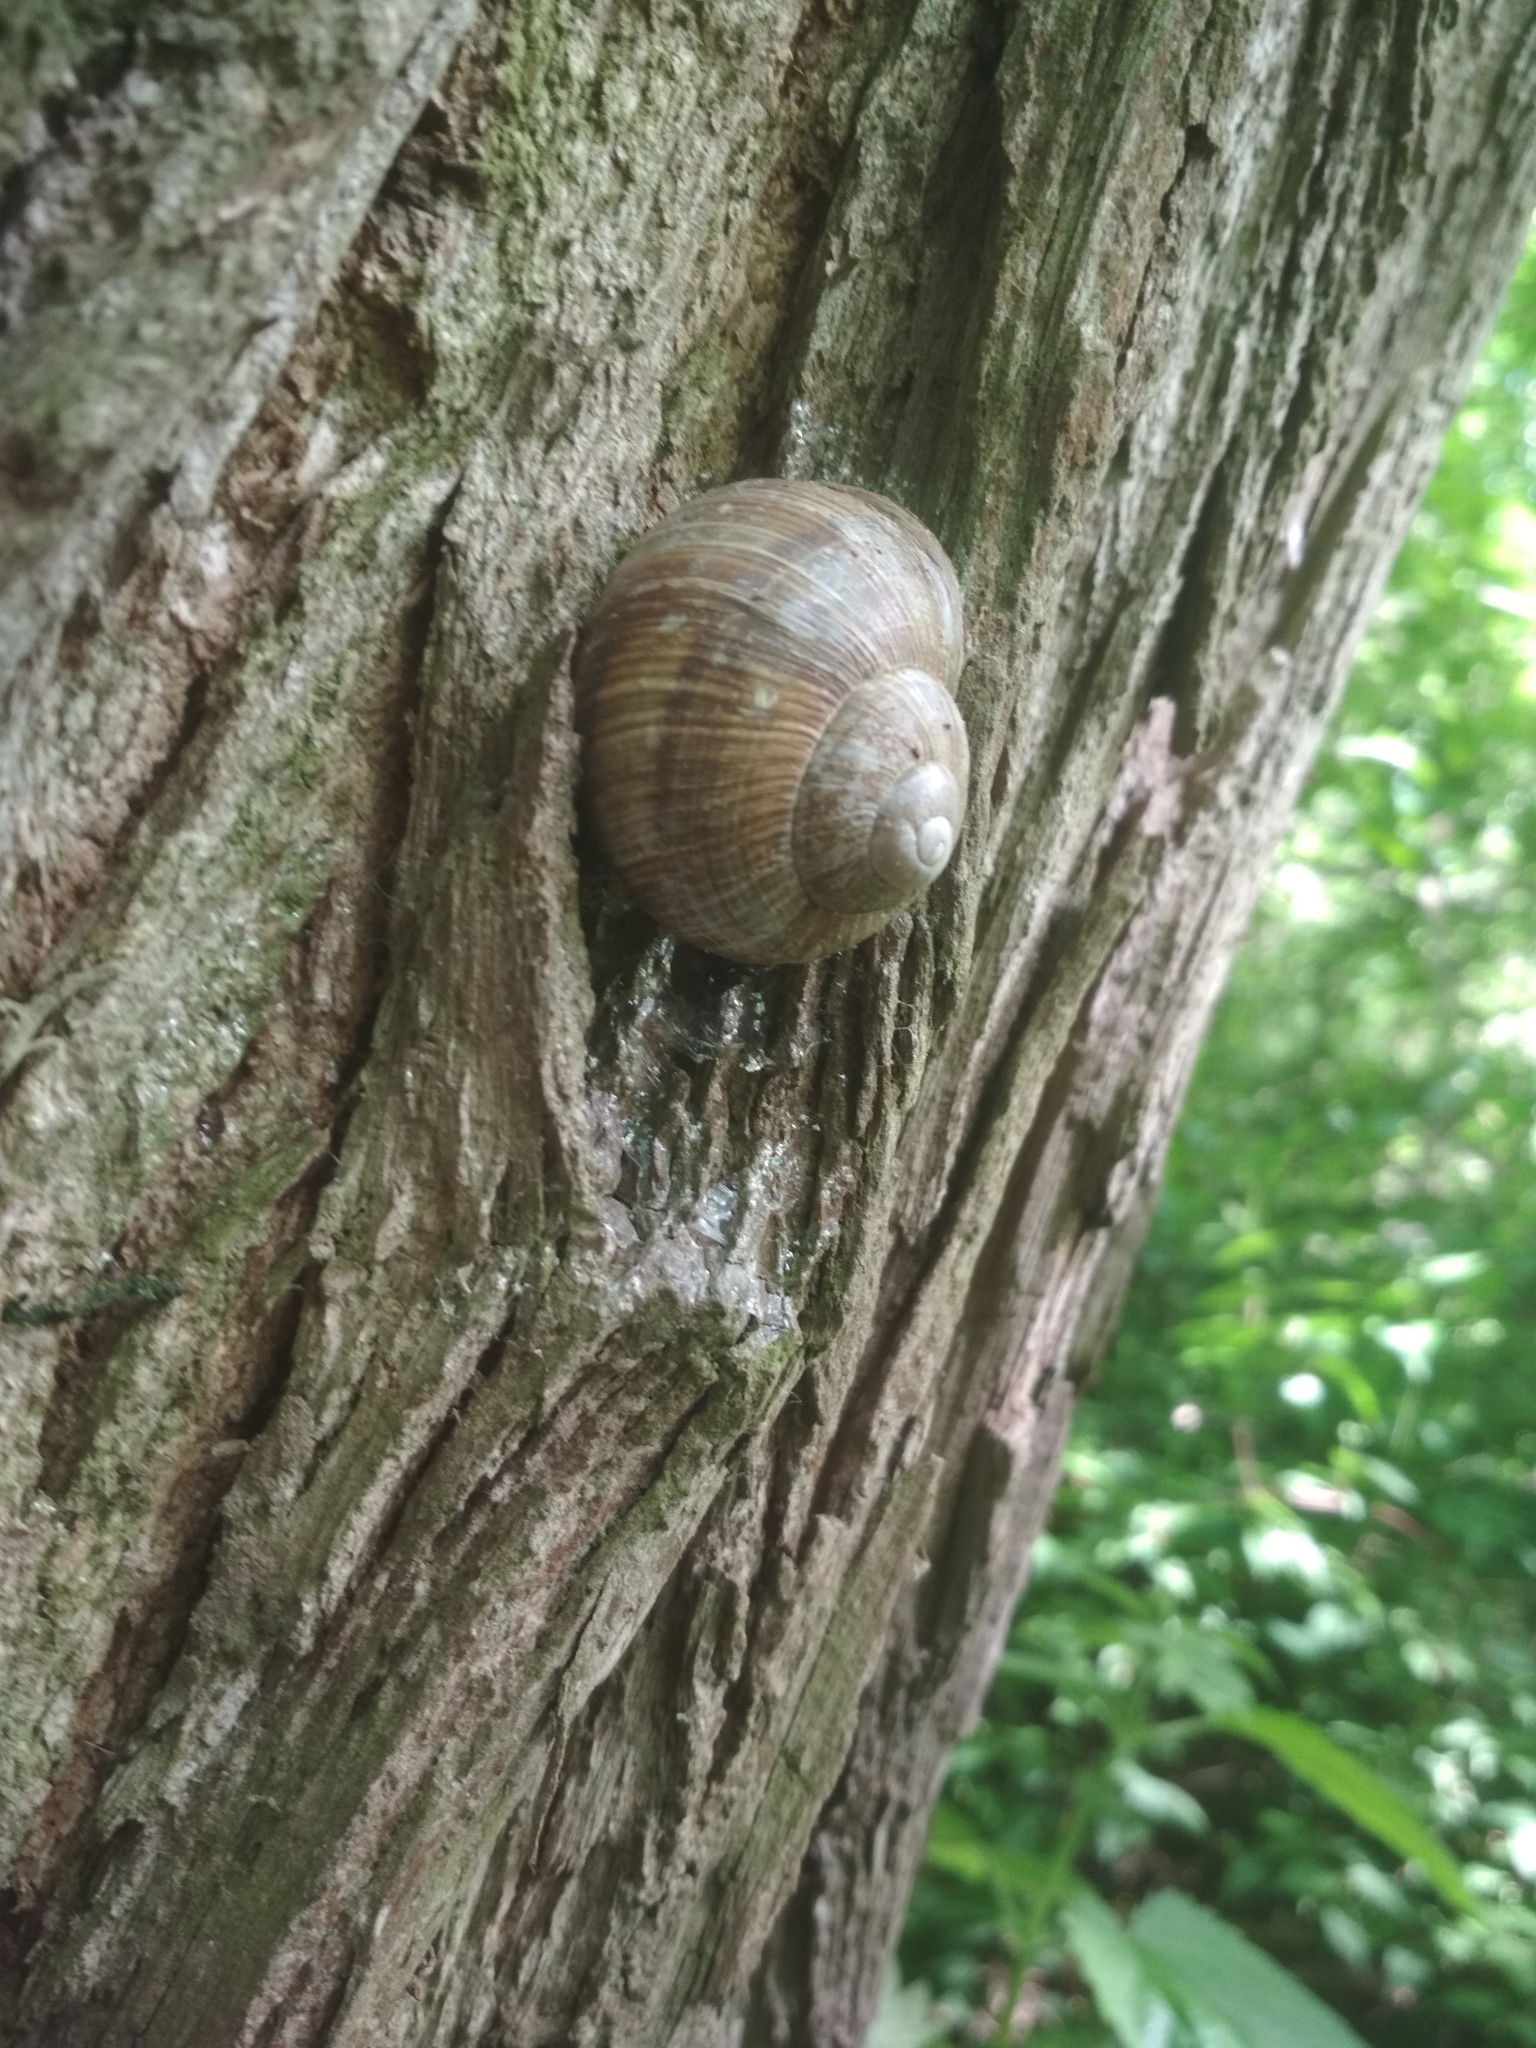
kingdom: Animalia
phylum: Mollusca
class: Gastropoda
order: Stylommatophora
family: Helicidae
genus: Helix
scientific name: Helix pomatia
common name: Roman snail
